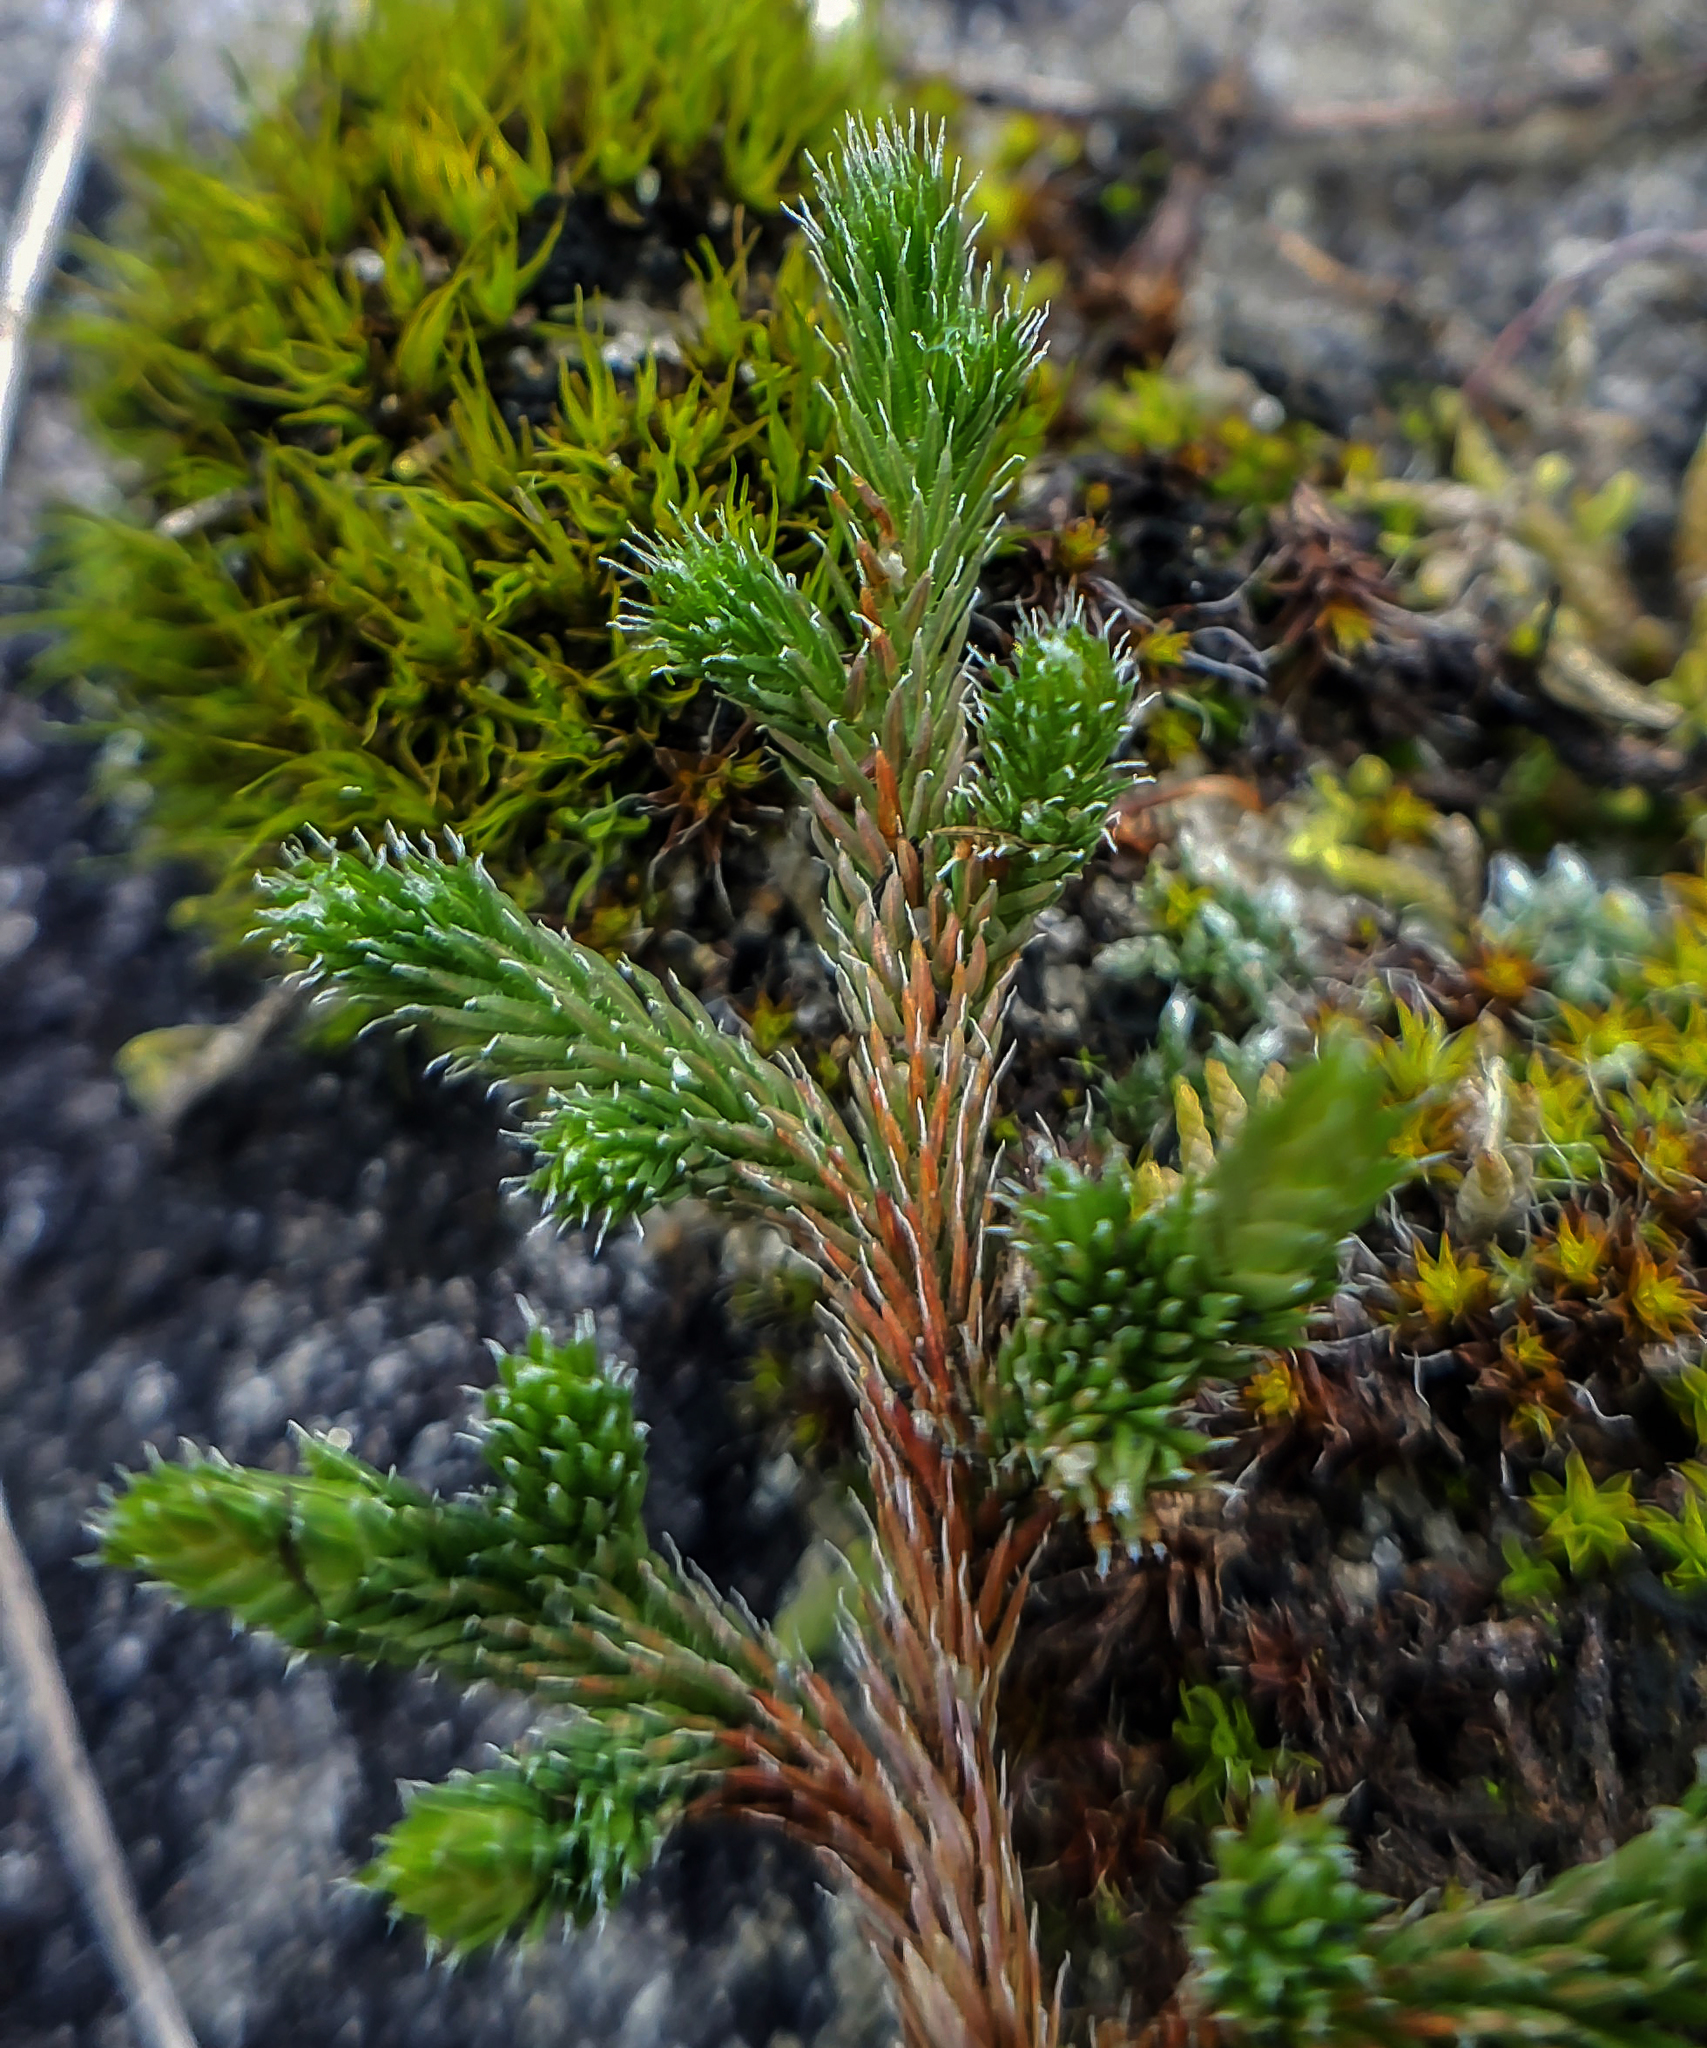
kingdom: Plantae
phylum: Tracheophyta
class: Lycopodiopsida
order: Selaginellales
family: Selaginellaceae
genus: Selaginella
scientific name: Selaginella rupestris
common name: Dwarf spikemoss
